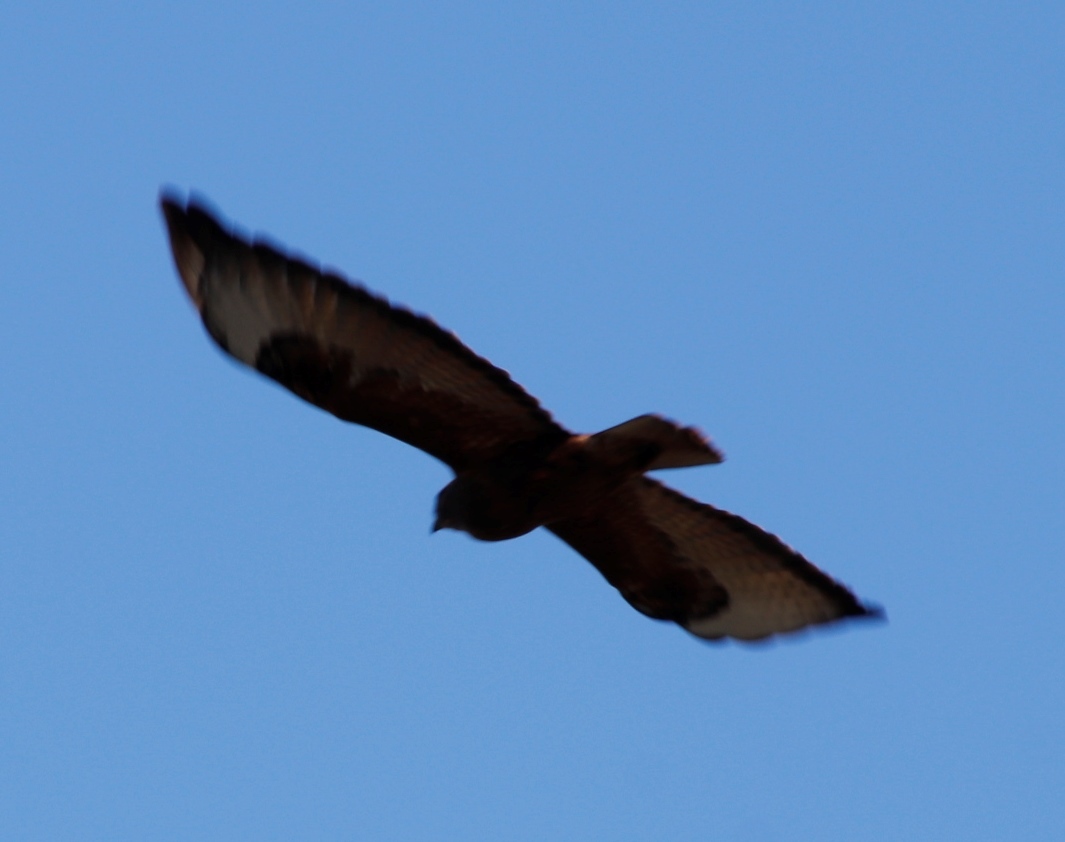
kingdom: Animalia
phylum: Chordata
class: Aves
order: Accipitriformes
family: Accipitridae
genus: Buteo
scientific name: Buteo rufofuscus
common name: Jackal buzzard
